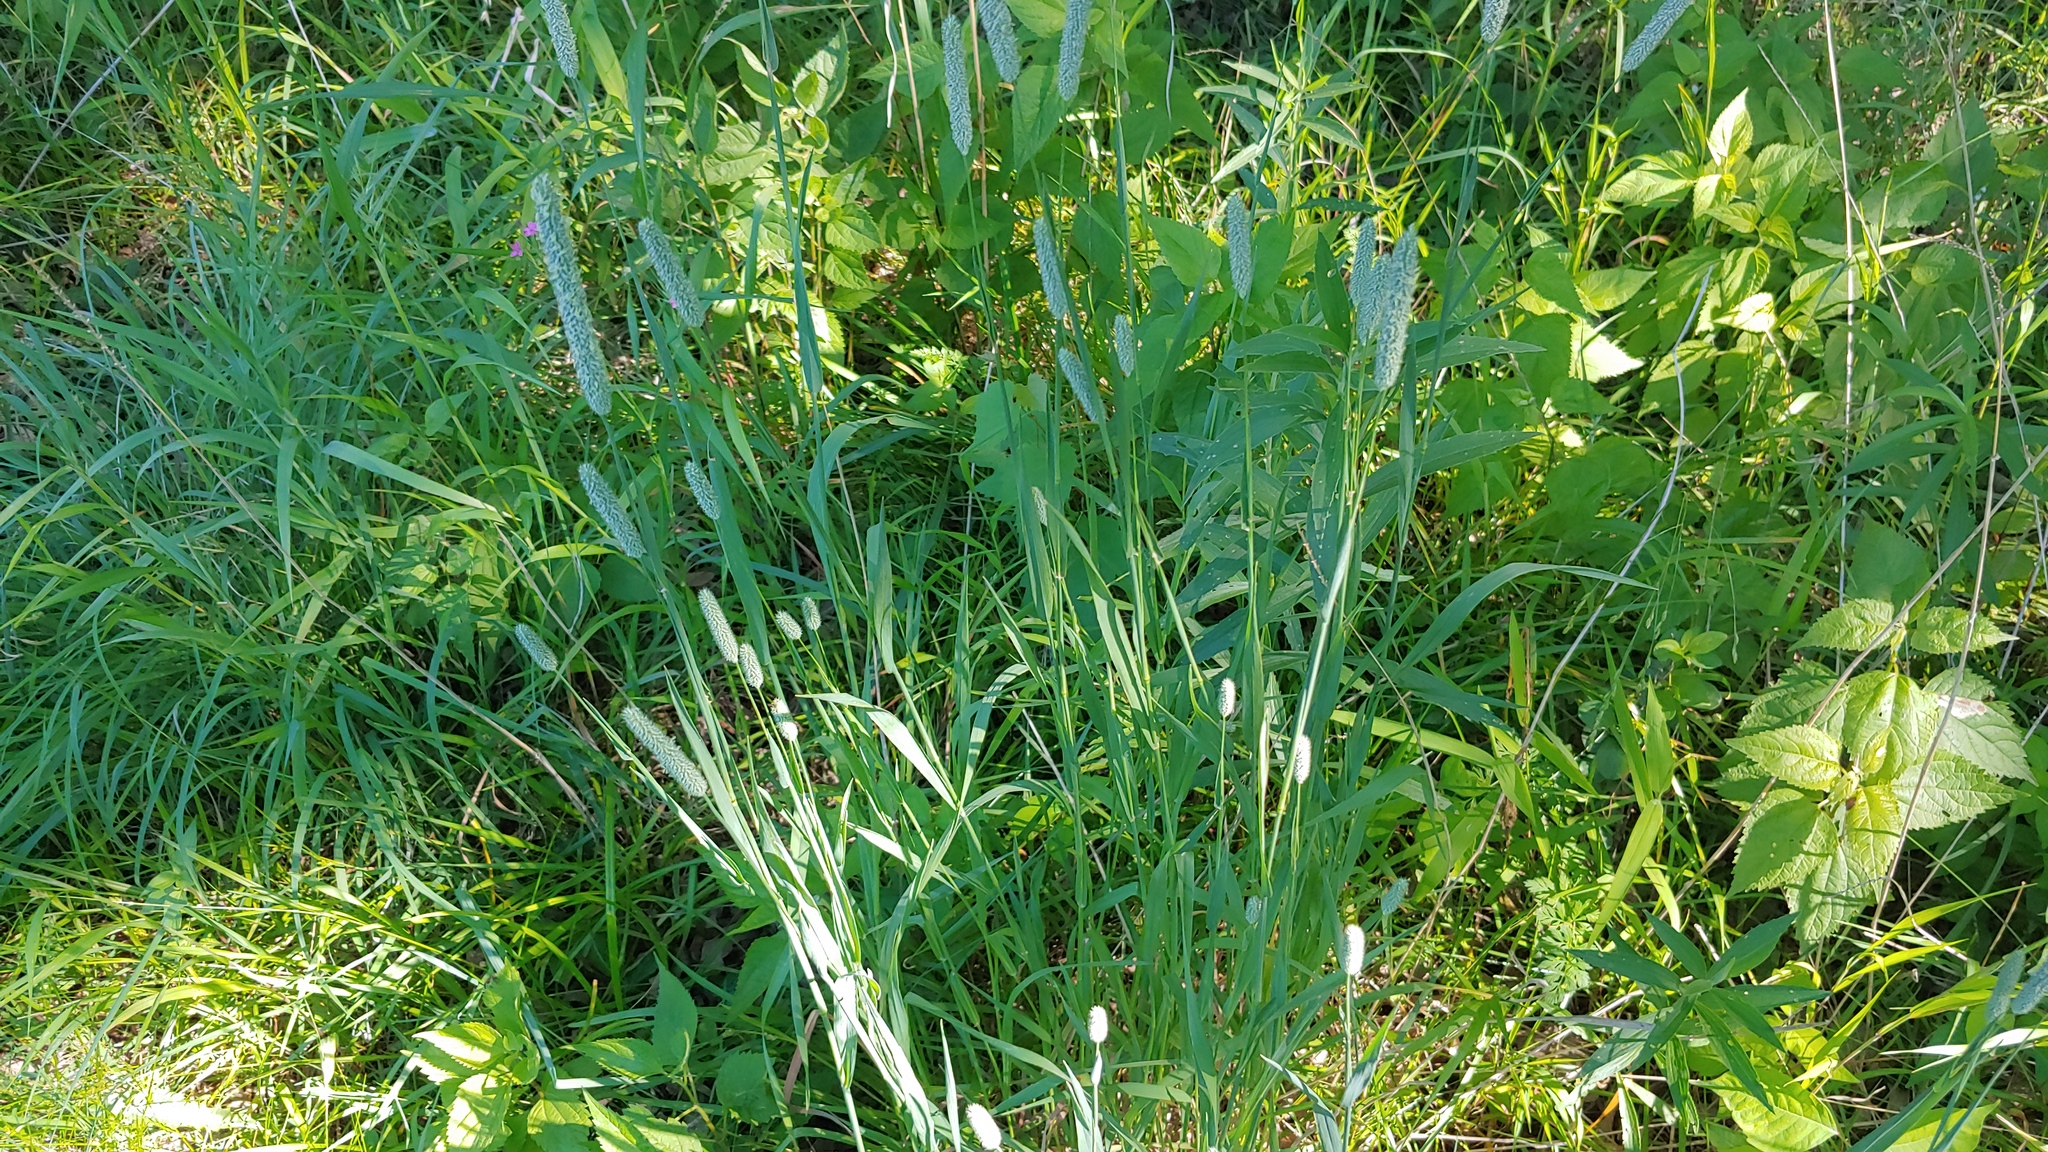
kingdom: Plantae
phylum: Tracheophyta
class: Liliopsida
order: Poales
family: Poaceae
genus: Phleum
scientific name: Phleum pratense
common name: Timothy grass
